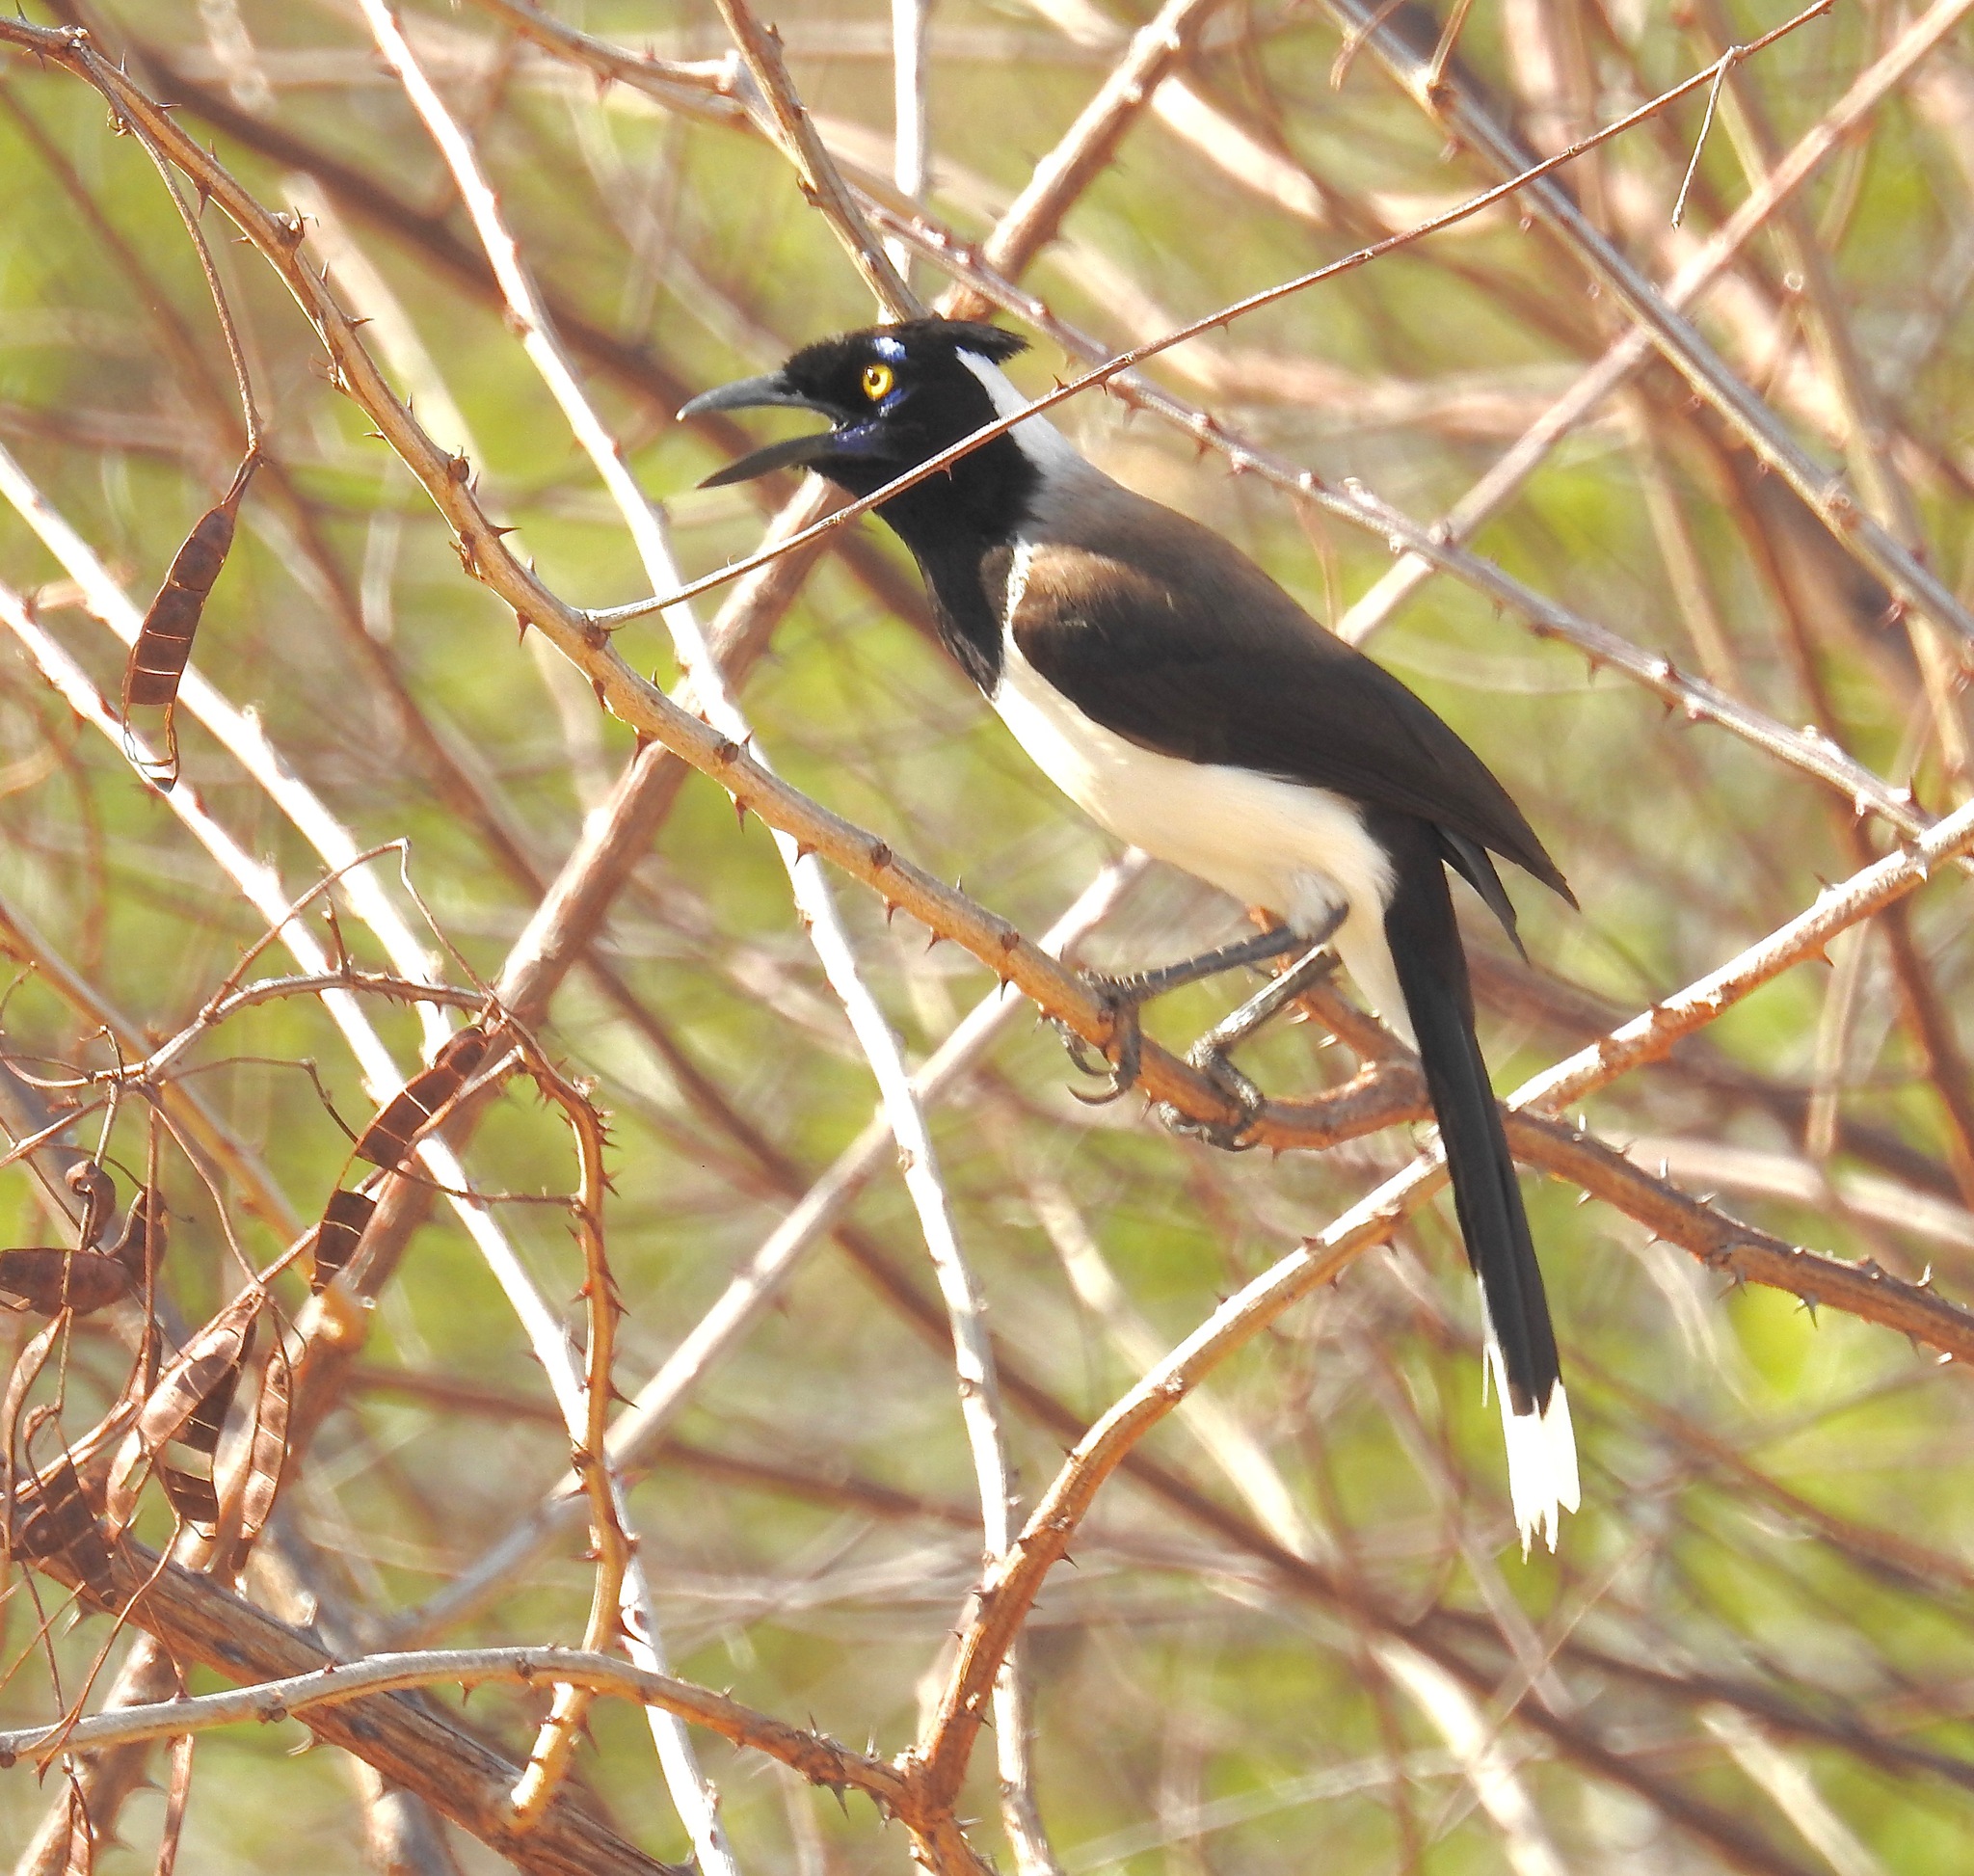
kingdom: Animalia
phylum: Chordata
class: Aves
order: Passeriformes
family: Corvidae
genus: Cyanocorax
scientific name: Cyanocorax cyanopogon
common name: White-naped jay
